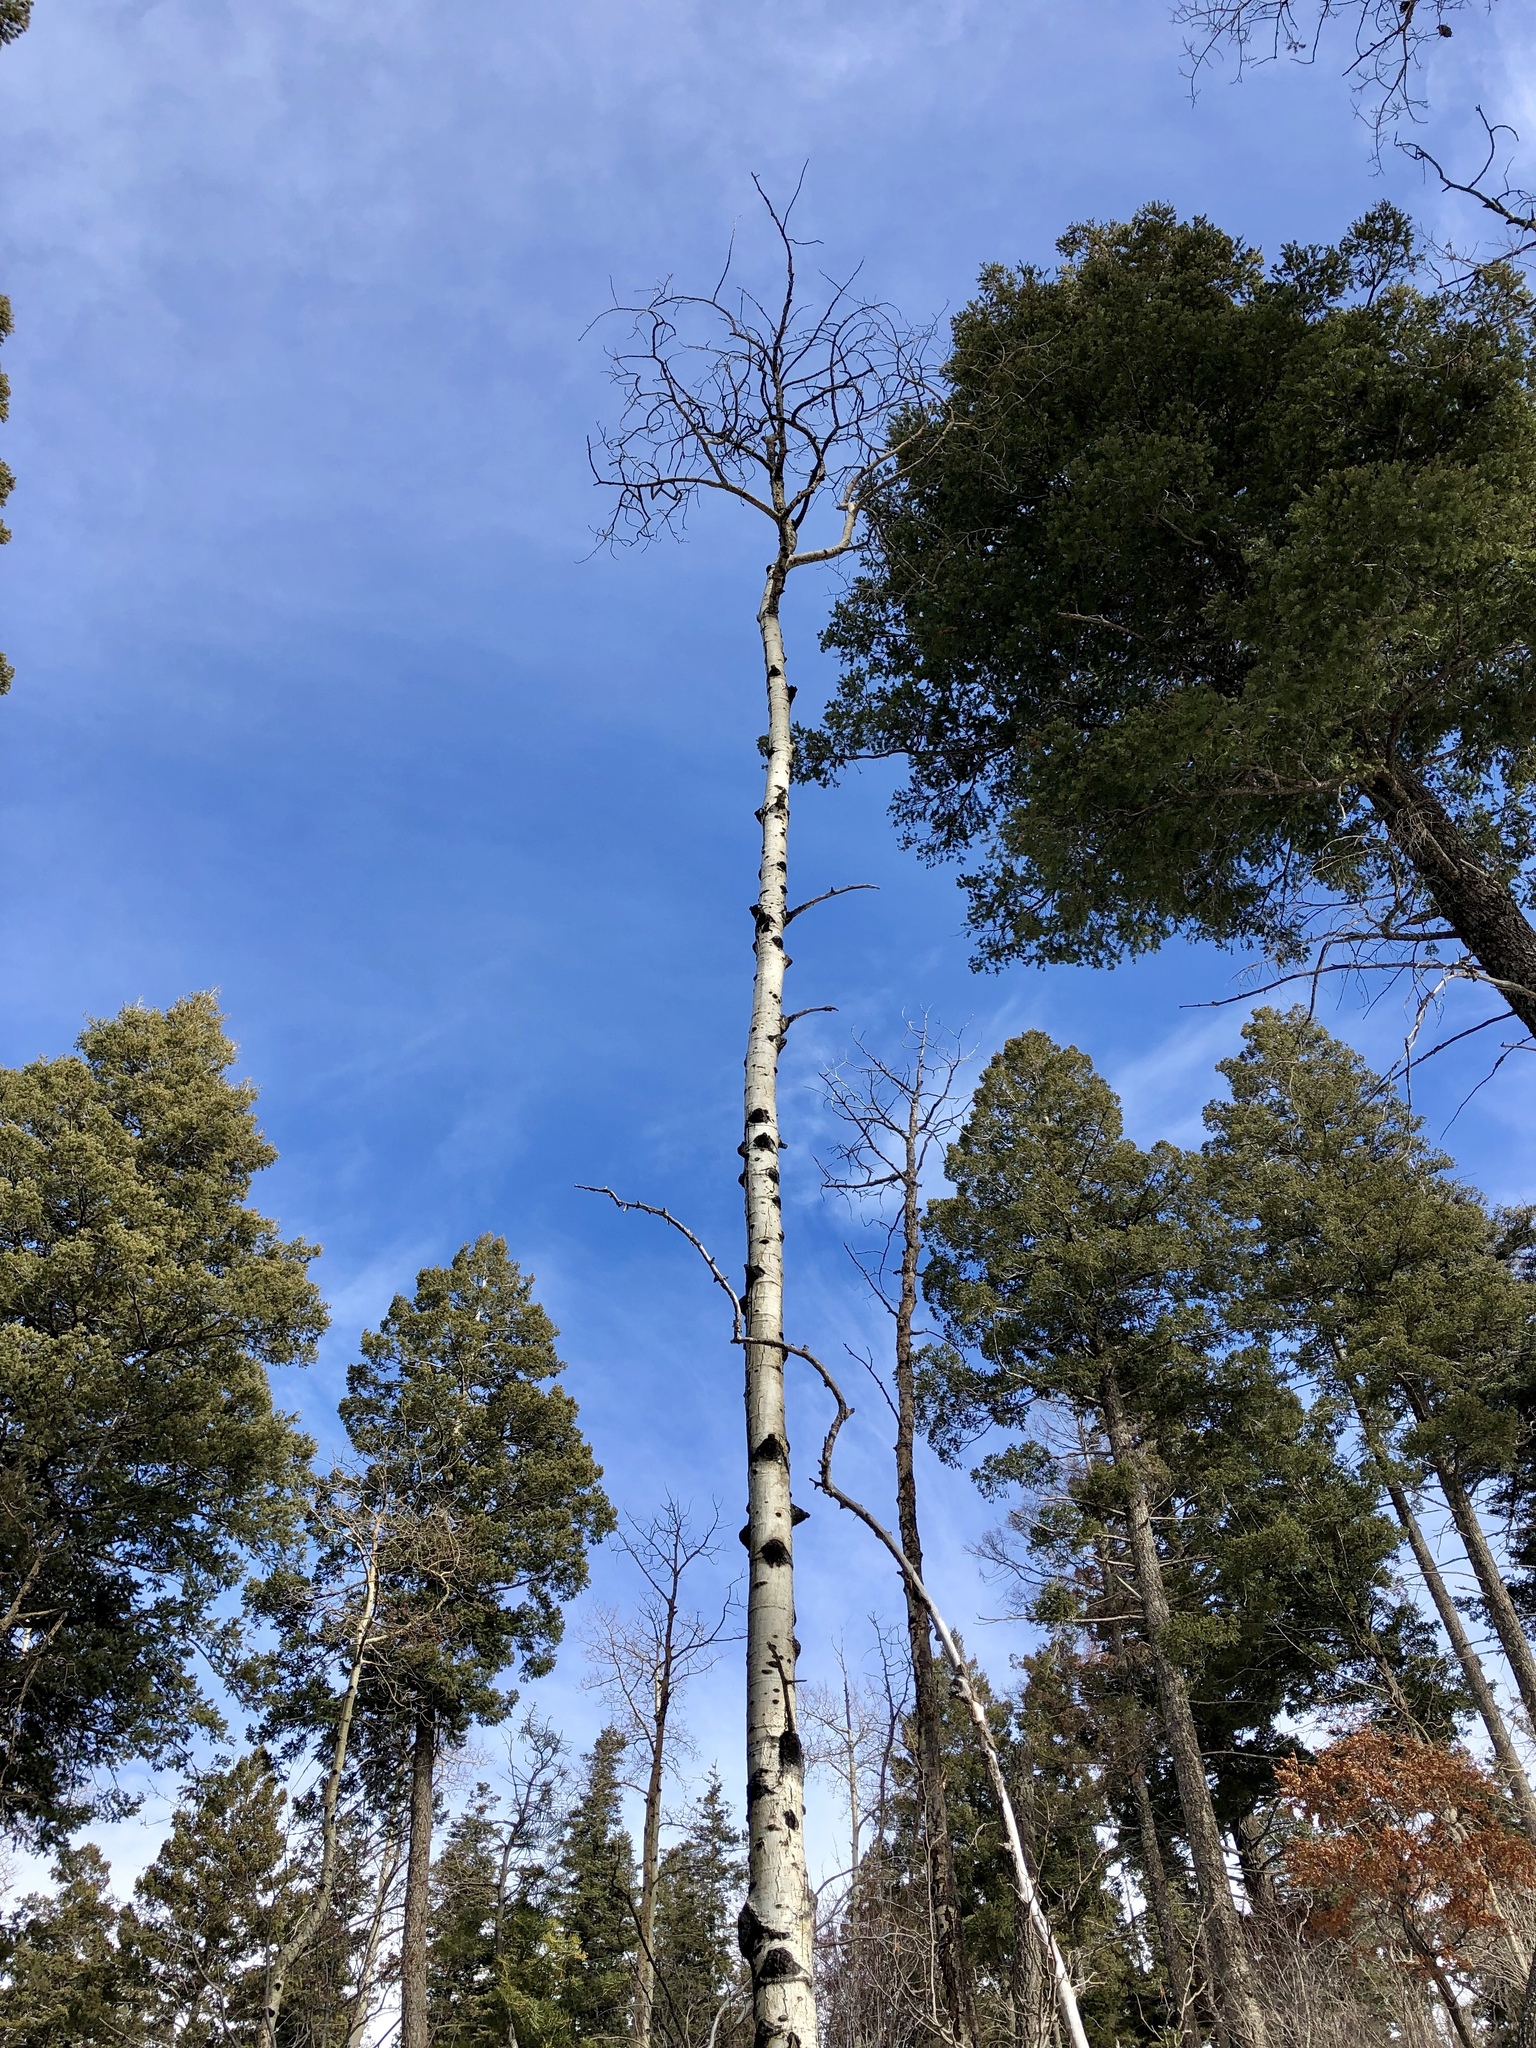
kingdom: Plantae
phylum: Tracheophyta
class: Magnoliopsida
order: Malpighiales
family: Salicaceae
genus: Populus
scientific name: Populus tremuloides
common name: Quaking aspen
